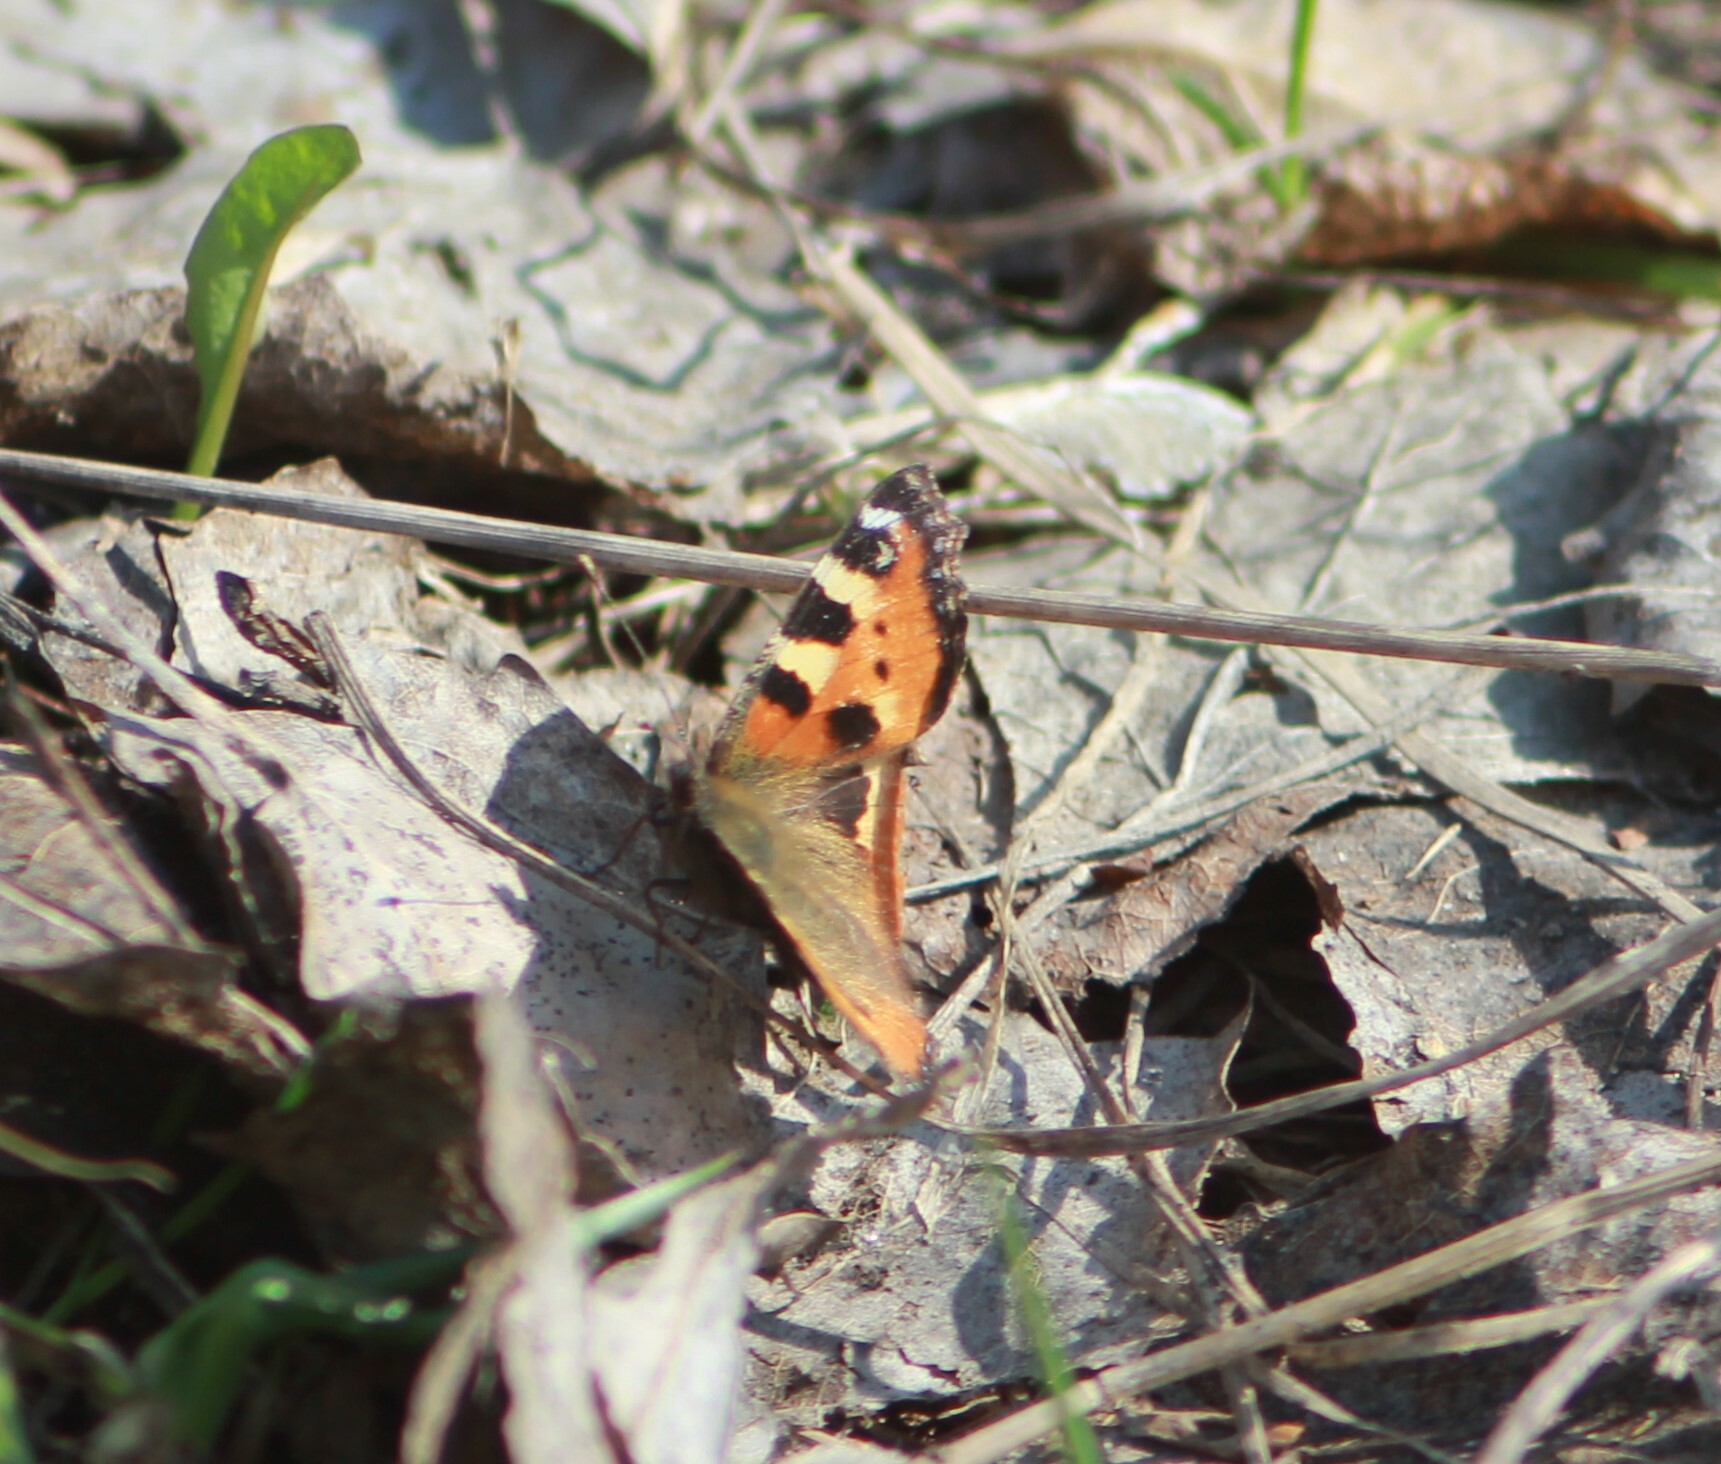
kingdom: Animalia
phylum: Arthropoda
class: Insecta
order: Lepidoptera
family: Nymphalidae
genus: Aglais
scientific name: Aglais urticae
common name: Small tortoiseshell
